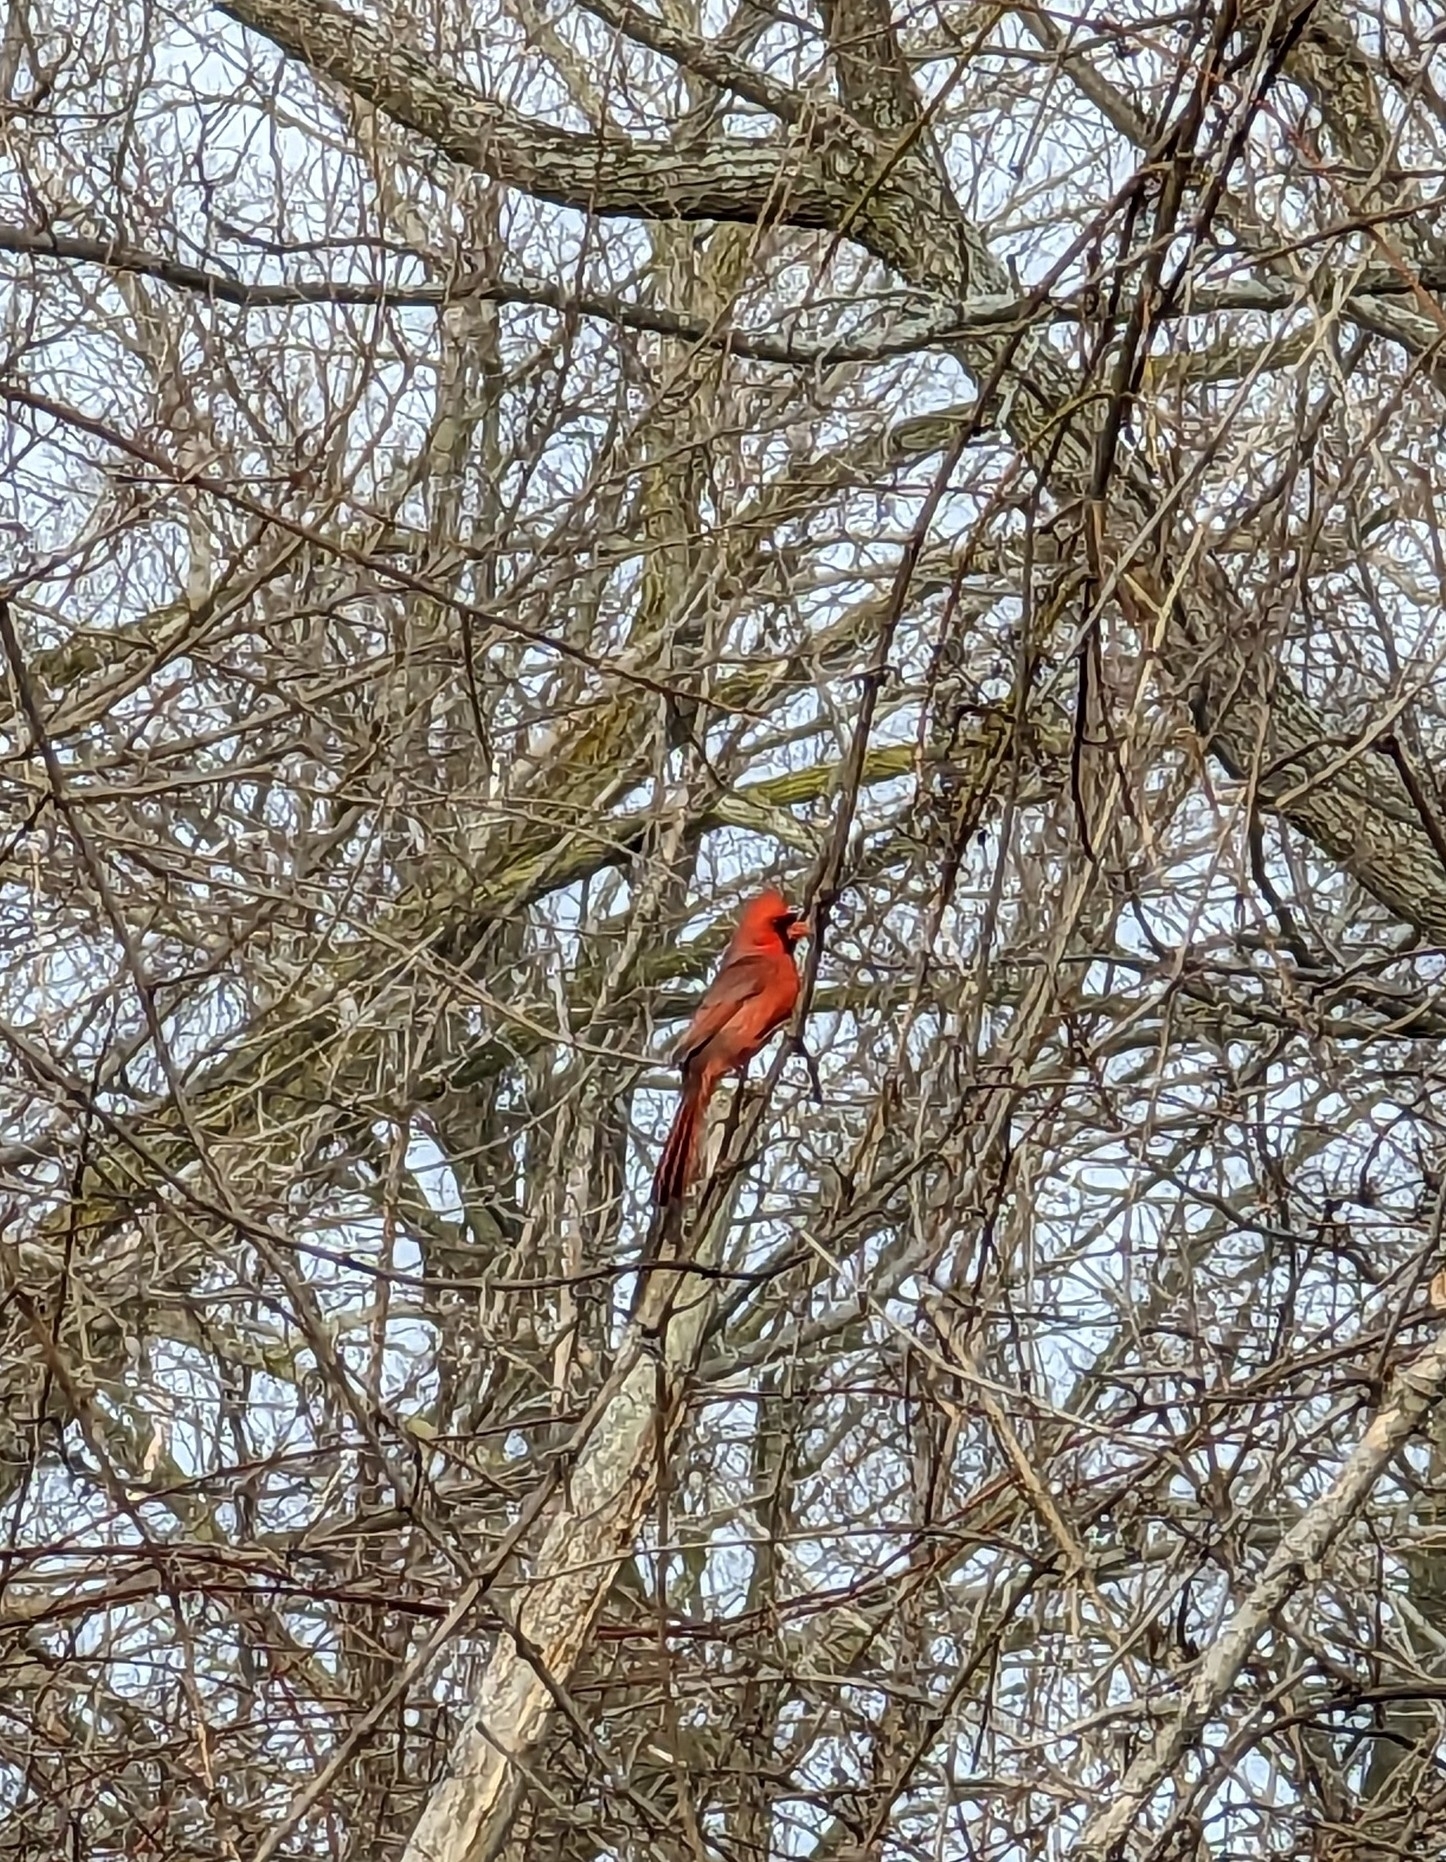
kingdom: Animalia
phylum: Chordata
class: Aves
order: Passeriformes
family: Cardinalidae
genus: Cardinalis
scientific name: Cardinalis cardinalis
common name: Northern cardinal
